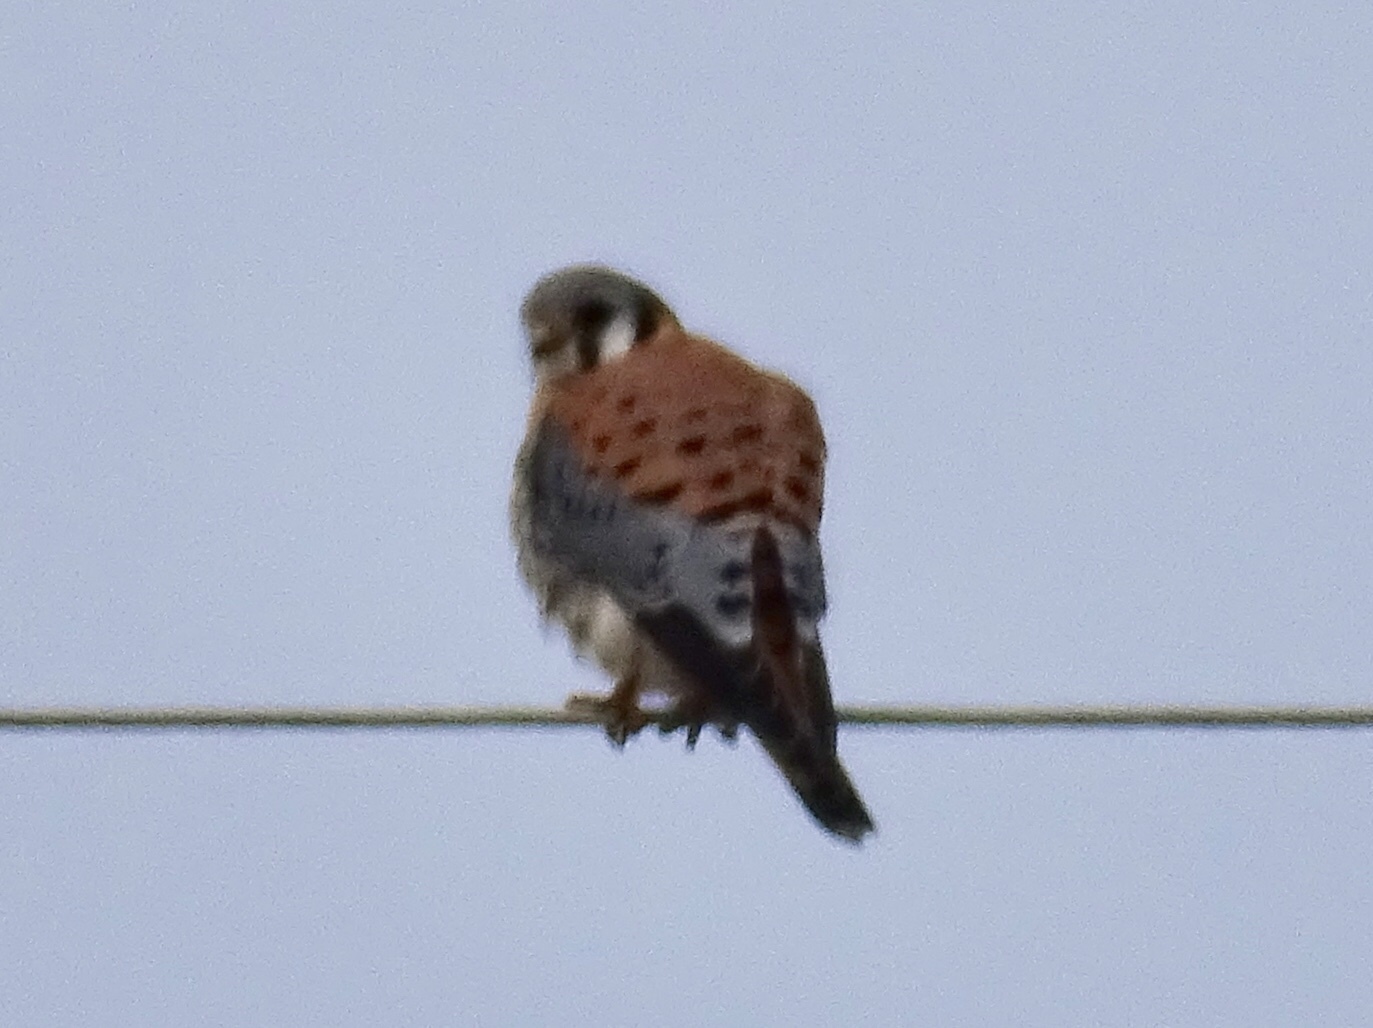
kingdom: Animalia
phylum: Chordata
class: Aves
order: Falconiformes
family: Falconidae
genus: Falco
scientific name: Falco sparverius
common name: American kestrel
